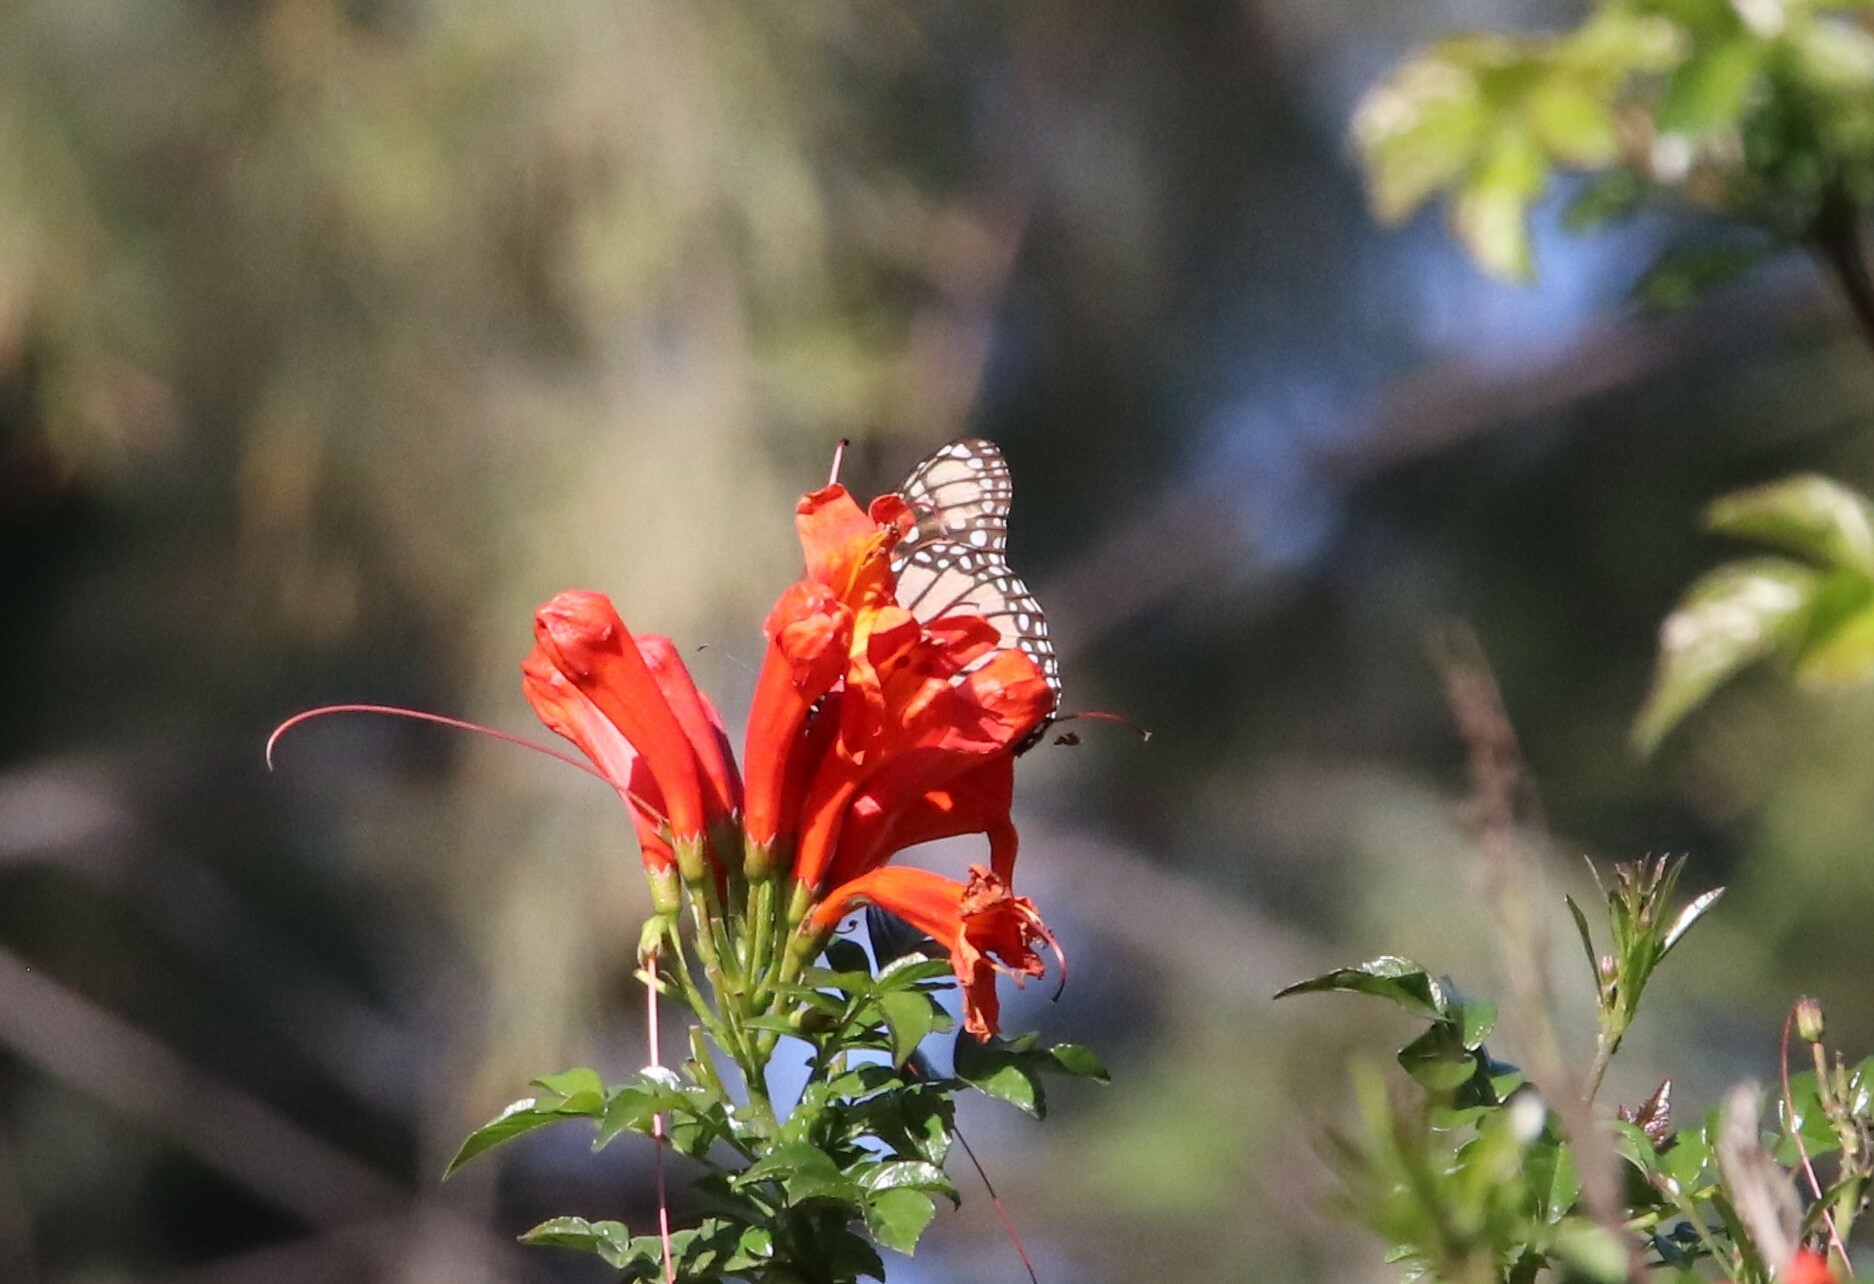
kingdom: Animalia
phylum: Arthropoda
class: Insecta
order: Lepidoptera
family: Nymphalidae
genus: Danaus
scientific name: Danaus plexippus
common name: Monarch
